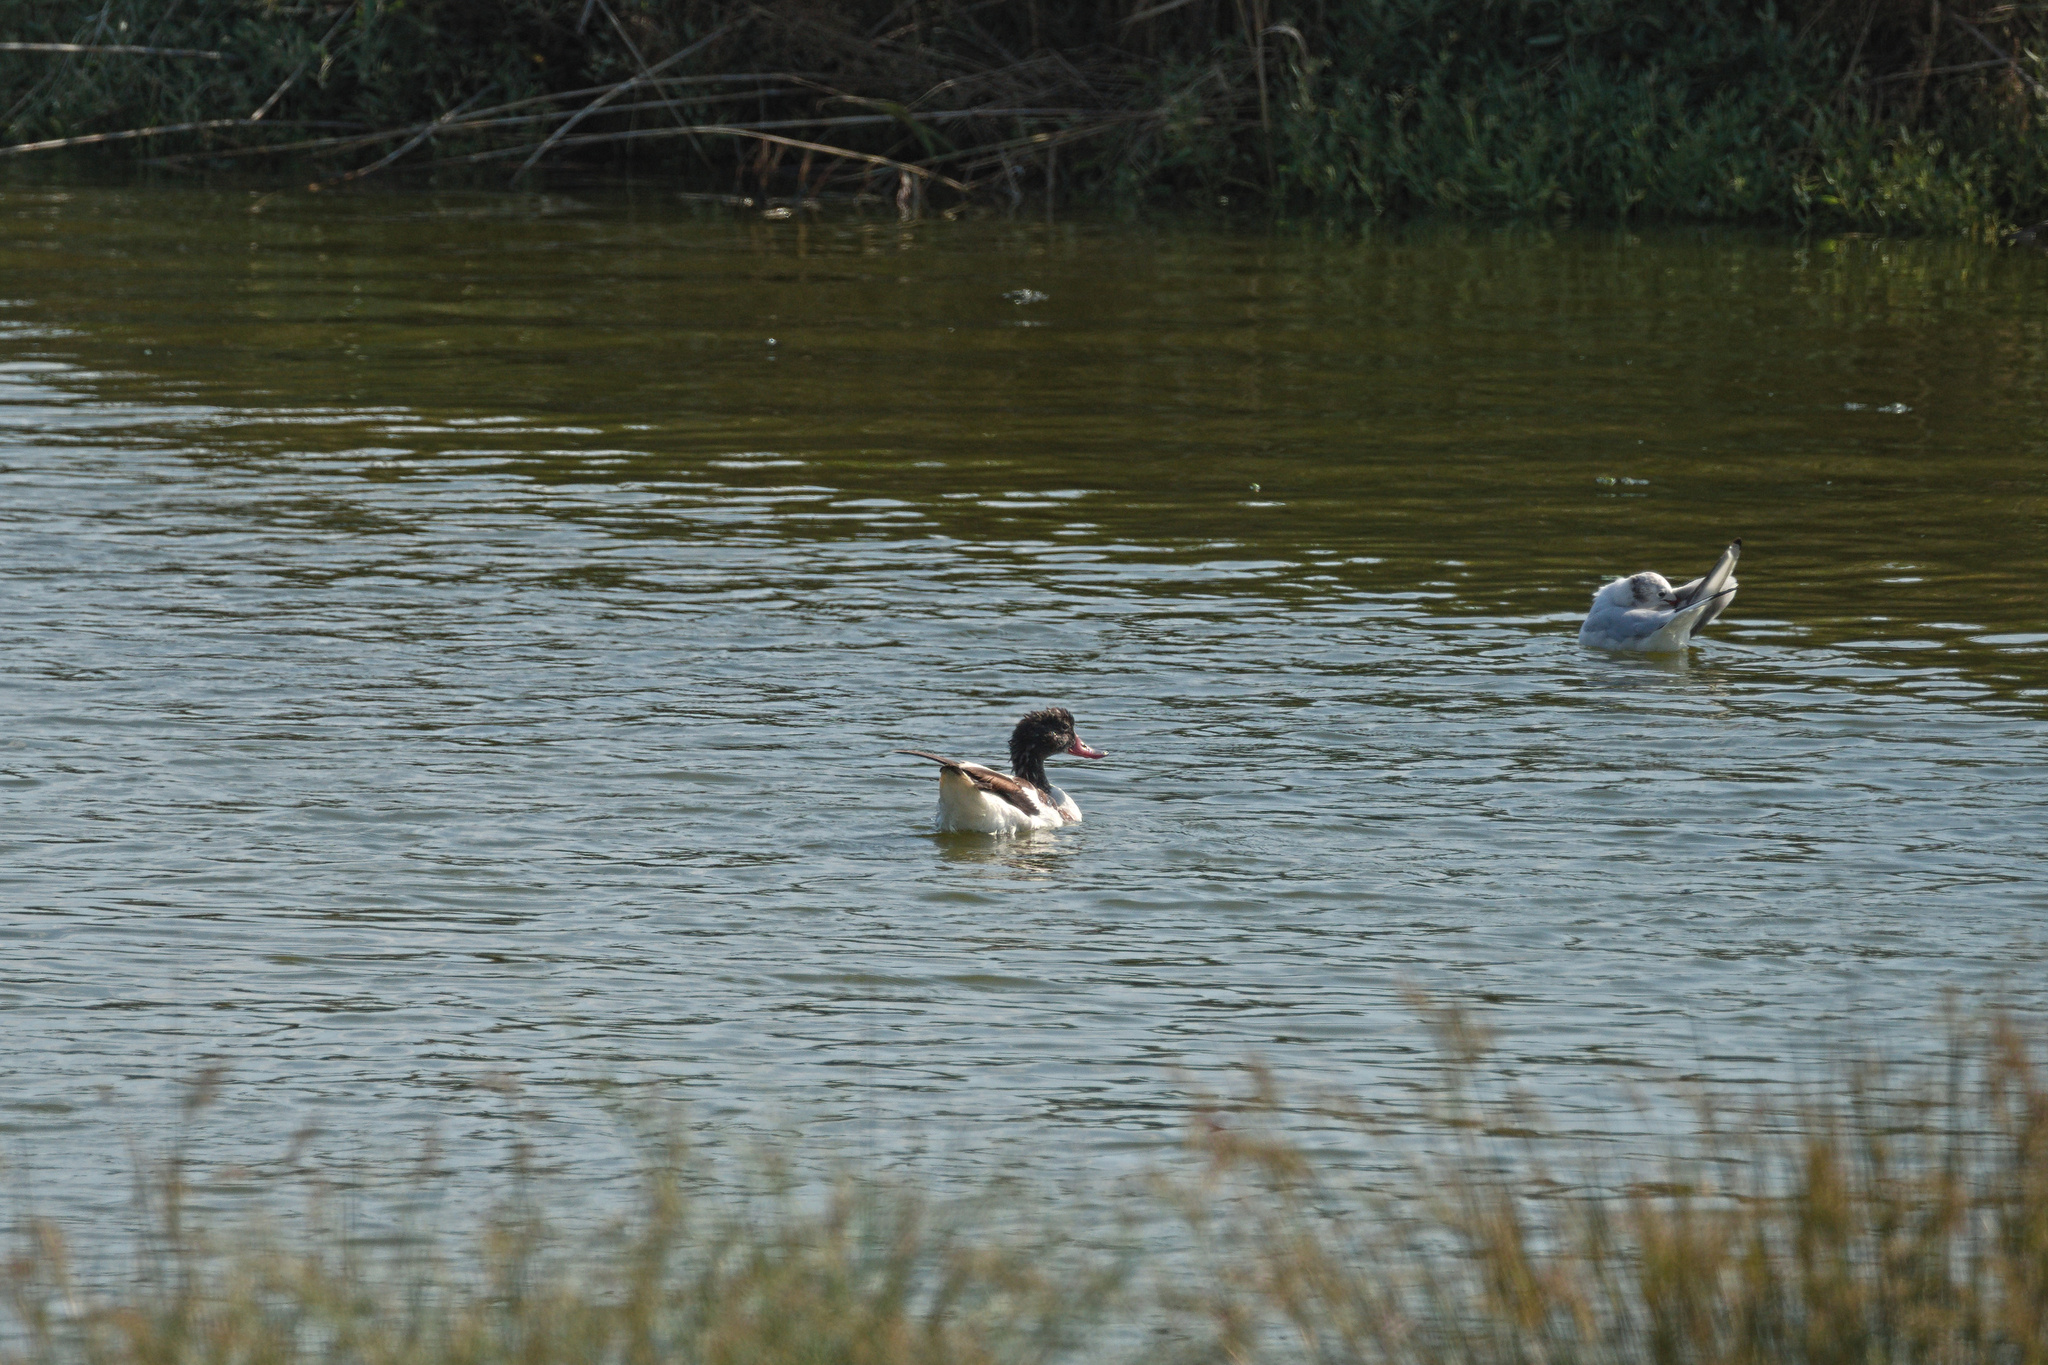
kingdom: Animalia
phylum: Chordata
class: Aves
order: Anseriformes
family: Anatidae
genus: Tadorna
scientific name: Tadorna tadorna
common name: Common shelduck
